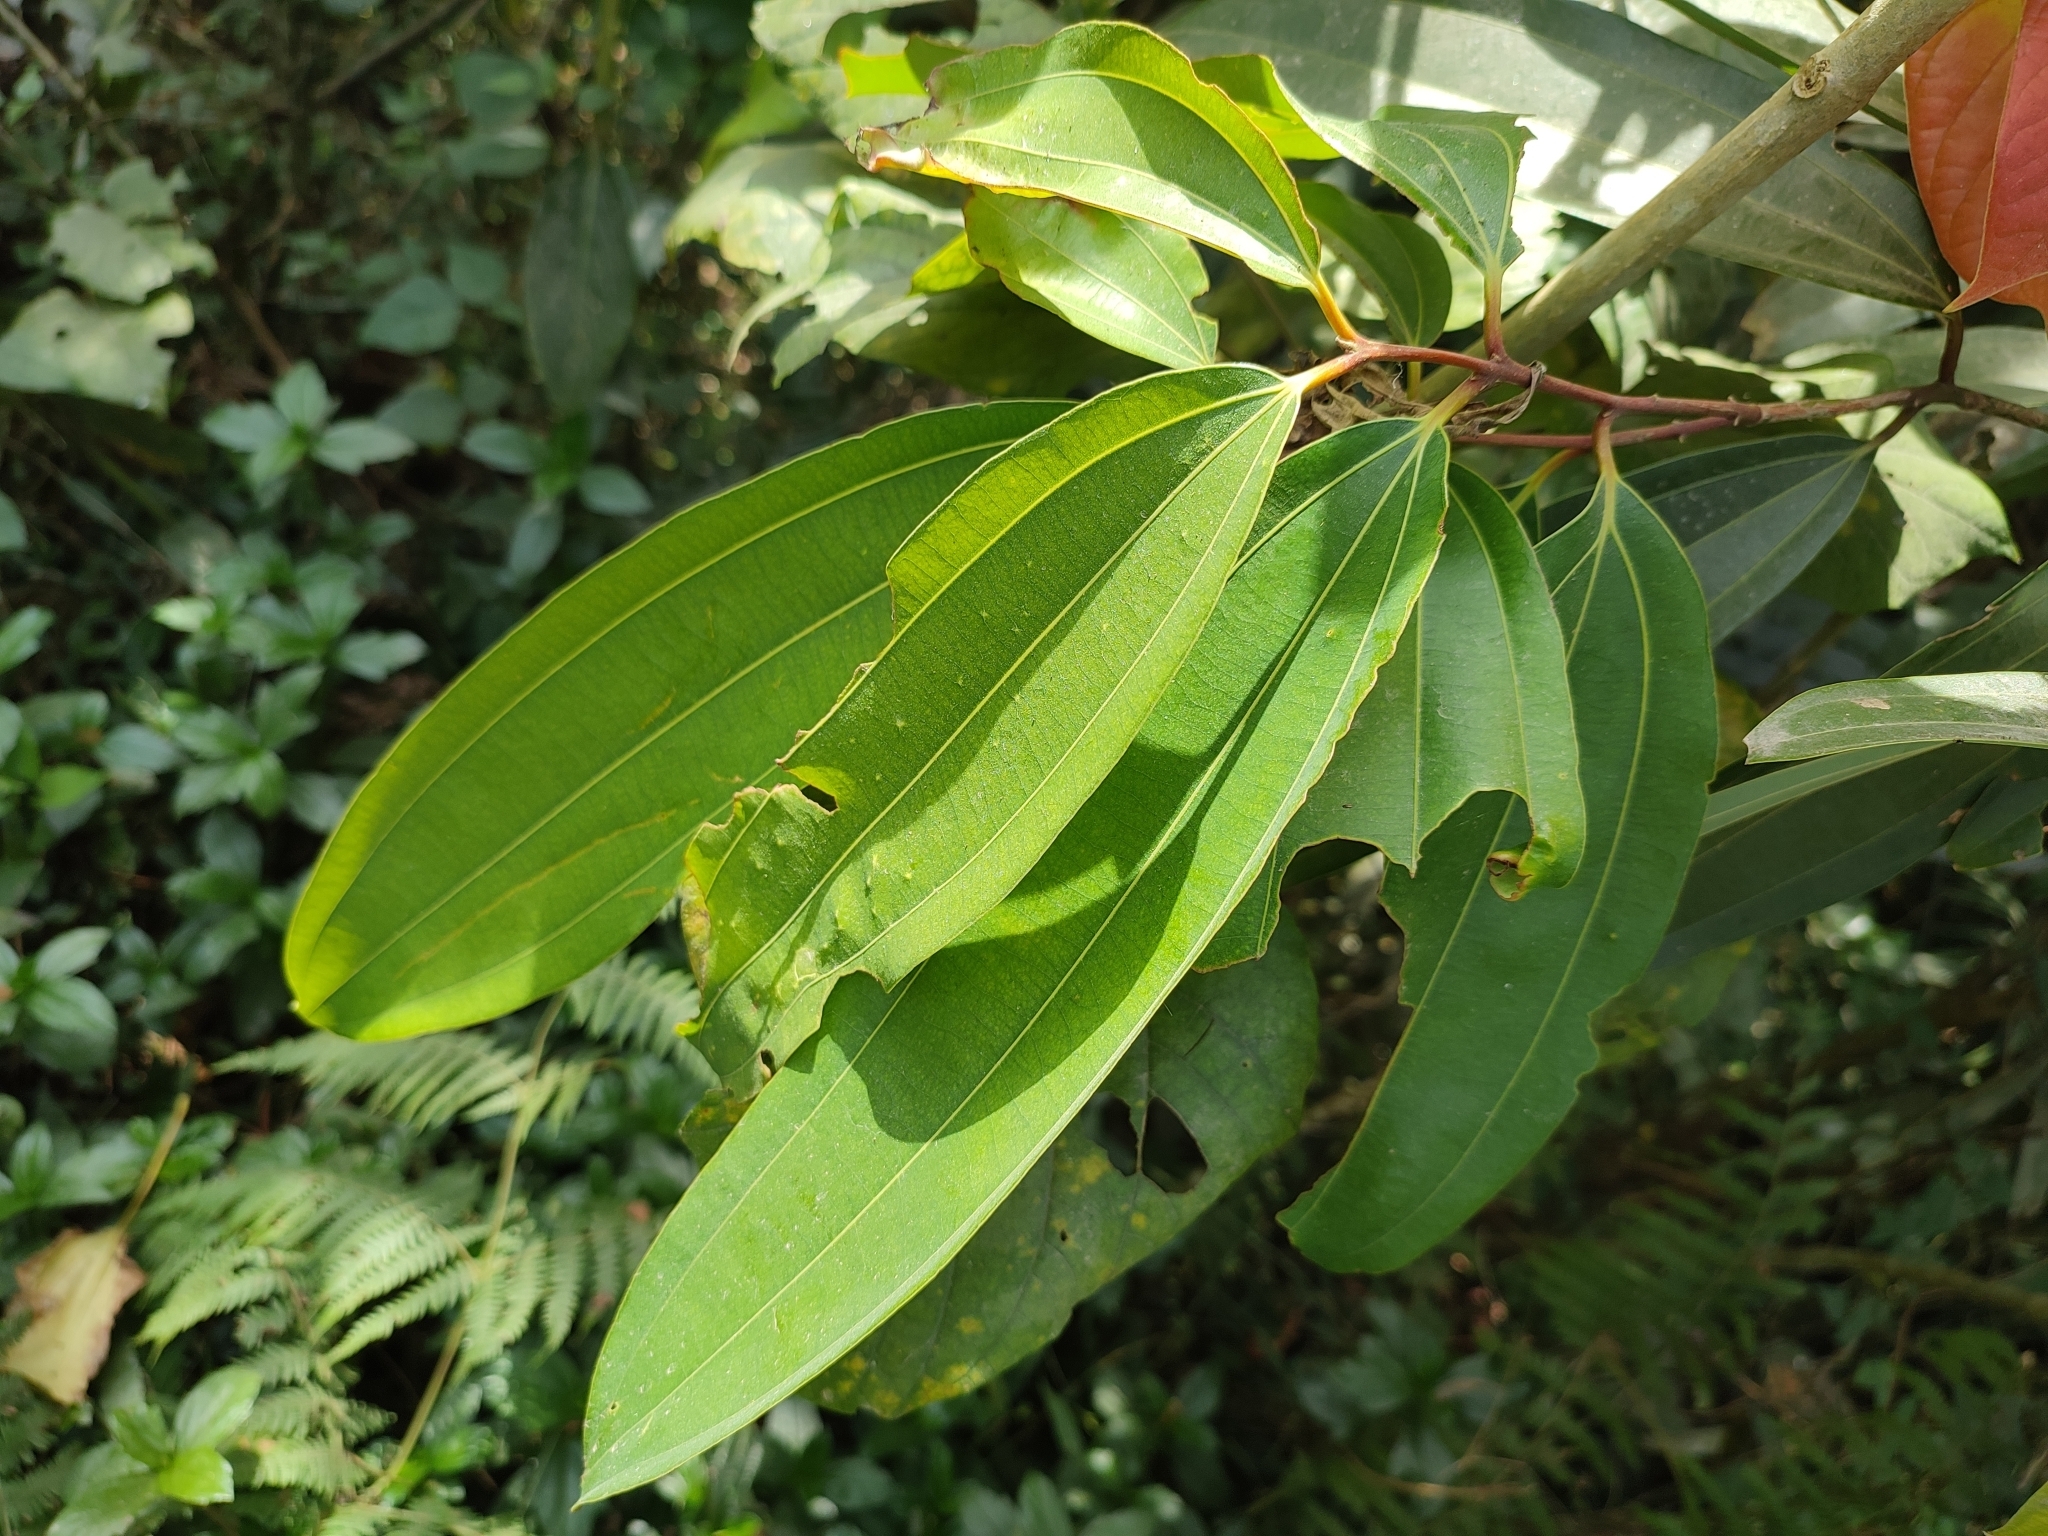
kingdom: Plantae
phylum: Tracheophyta
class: Magnoliopsida
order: Laurales
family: Lauraceae
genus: Cinnamomum
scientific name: Cinnamomum malabatrum
